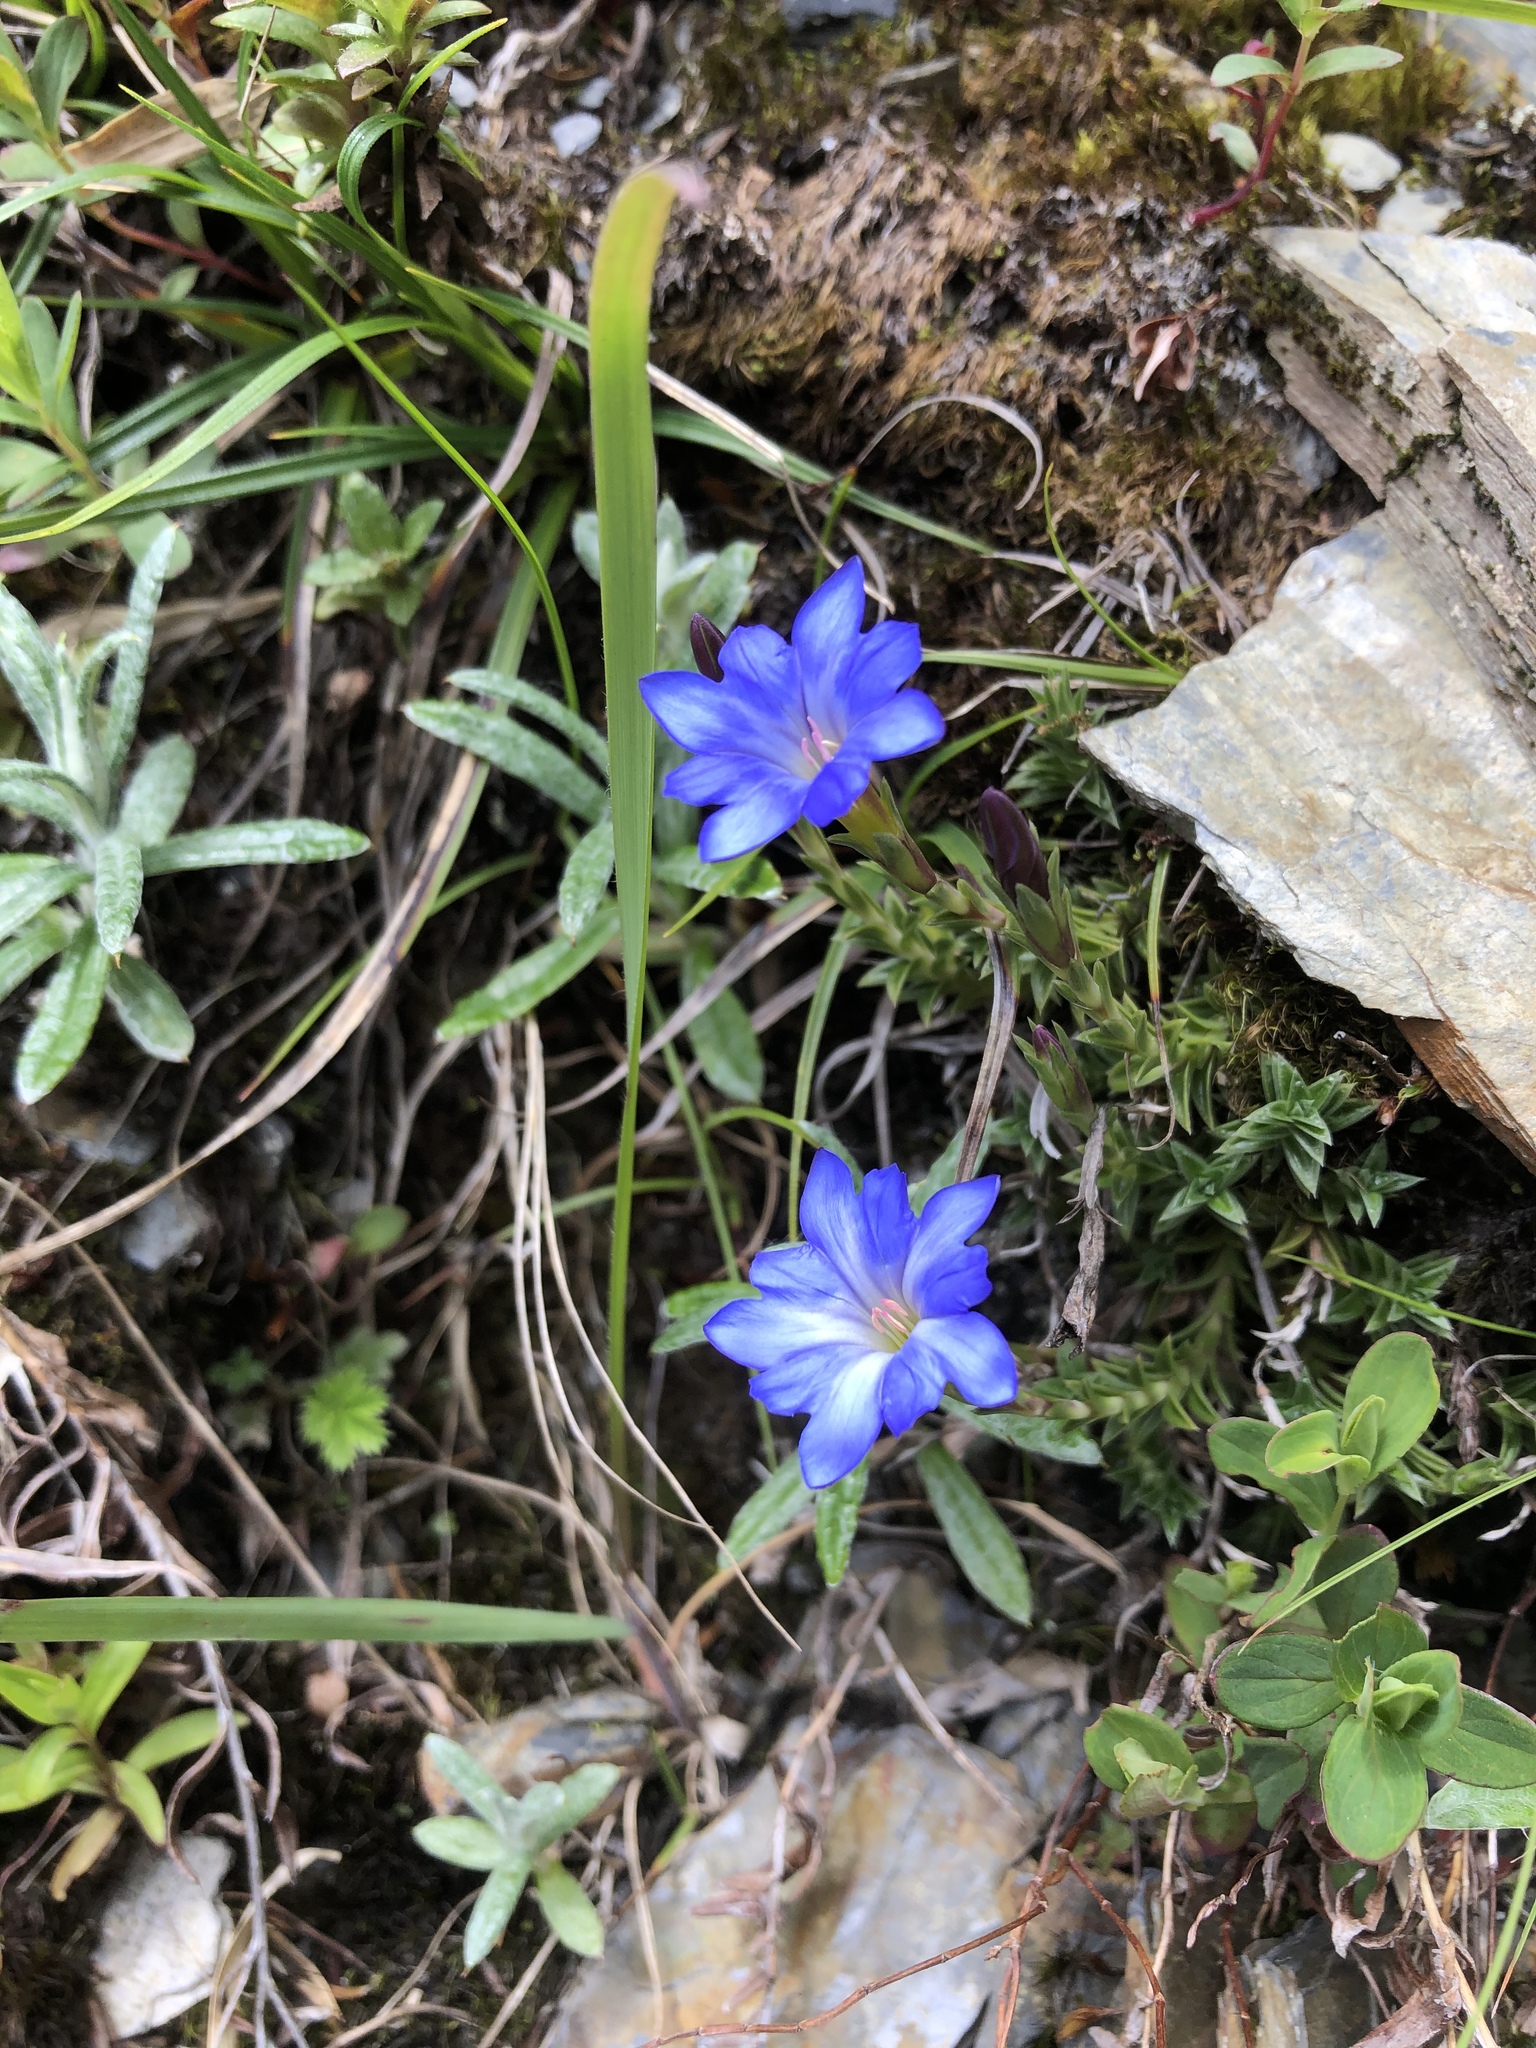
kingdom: Plantae
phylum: Tracheophyta
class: Magnoliopsida
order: Gentianales
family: Gentianaceae
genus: Gentiana
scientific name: Gentiana arisanensis
